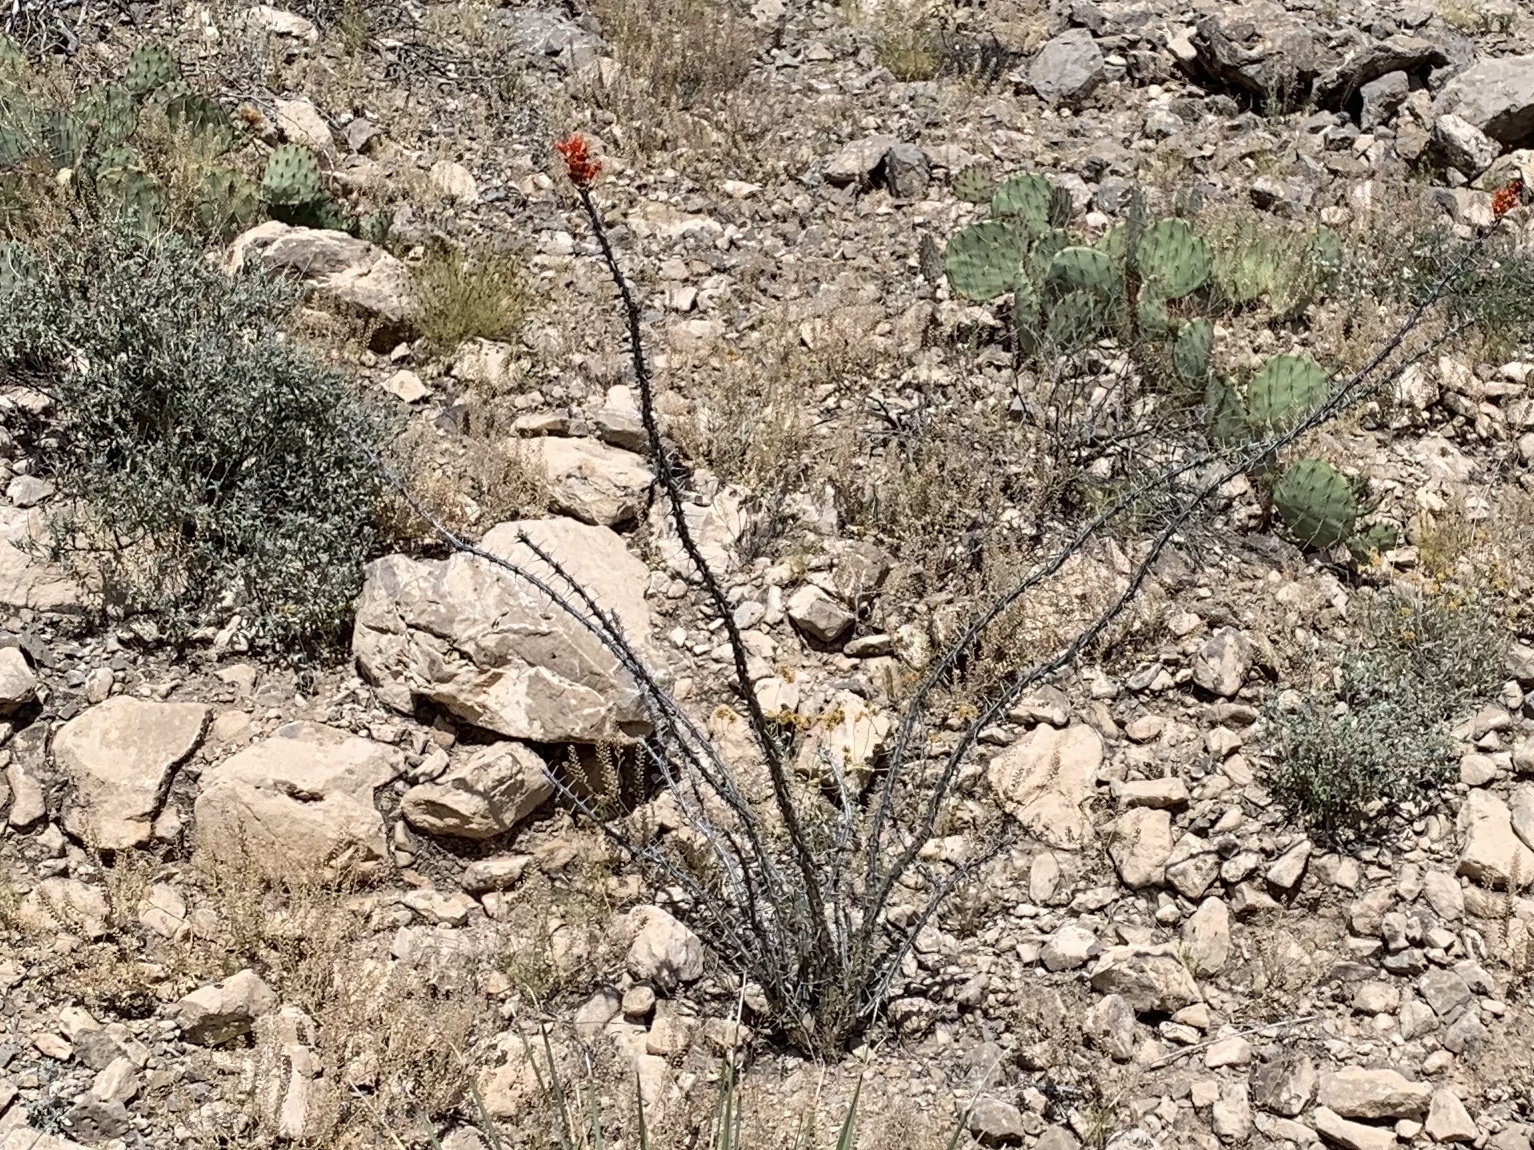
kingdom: Plantae
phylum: Tracheophyta
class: Magnoliopsida
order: Ericales
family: Fouquieriaceae
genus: Fouquieria
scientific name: Fouquieria splendens
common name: Vine-cactus
